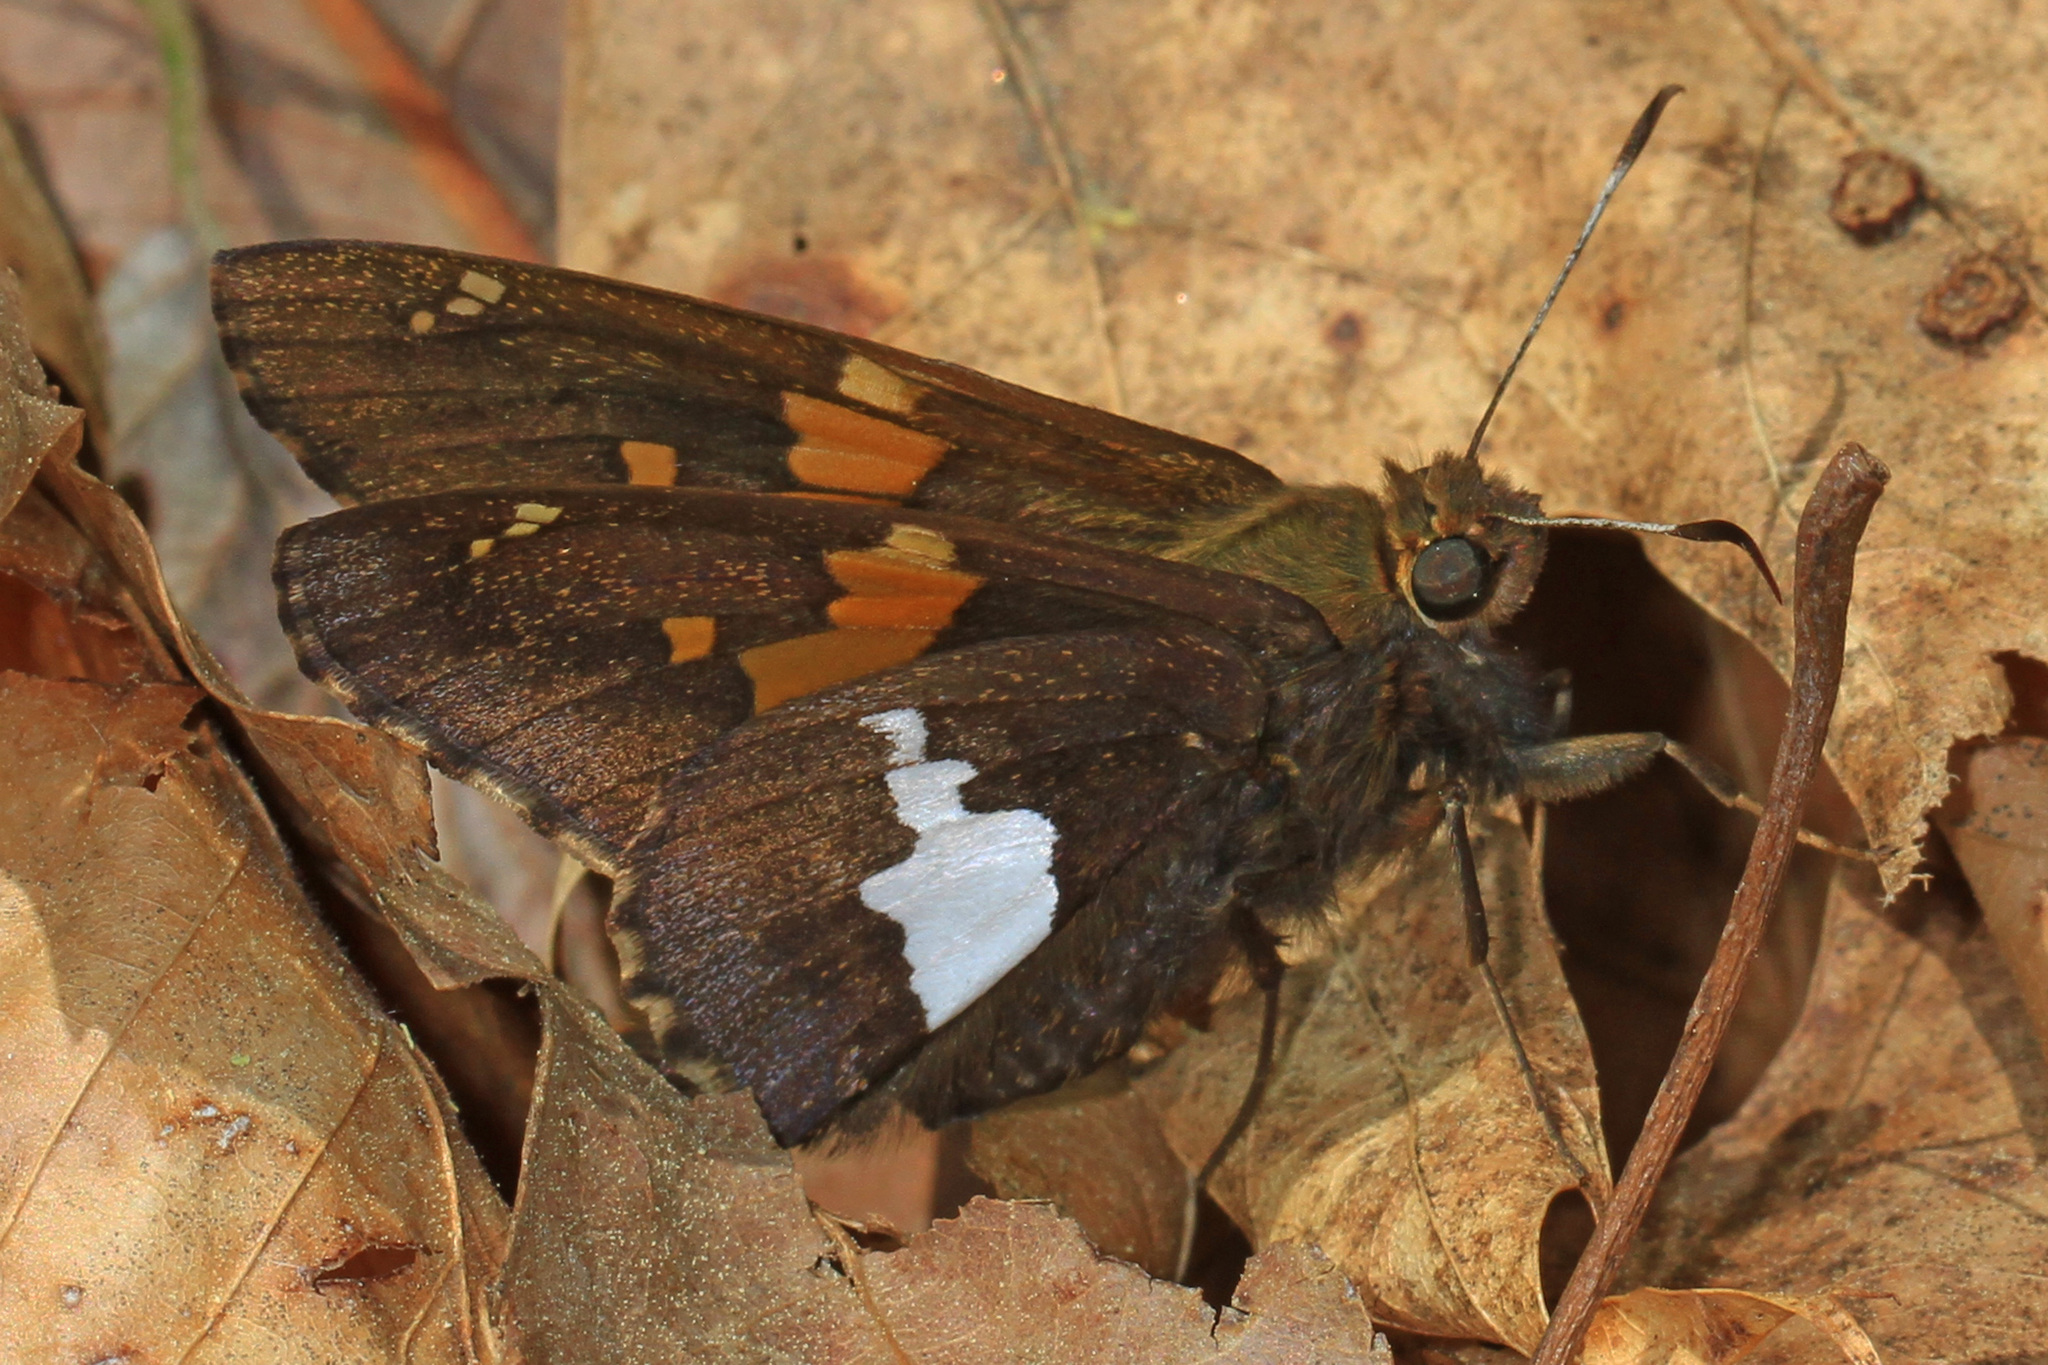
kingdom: Animalia
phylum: Arthropoda
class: Insecta
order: Lepidoptera
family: Hesperiidae
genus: Epargyreus
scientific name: Epargyreus clarus
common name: Silver-spotted skipper
